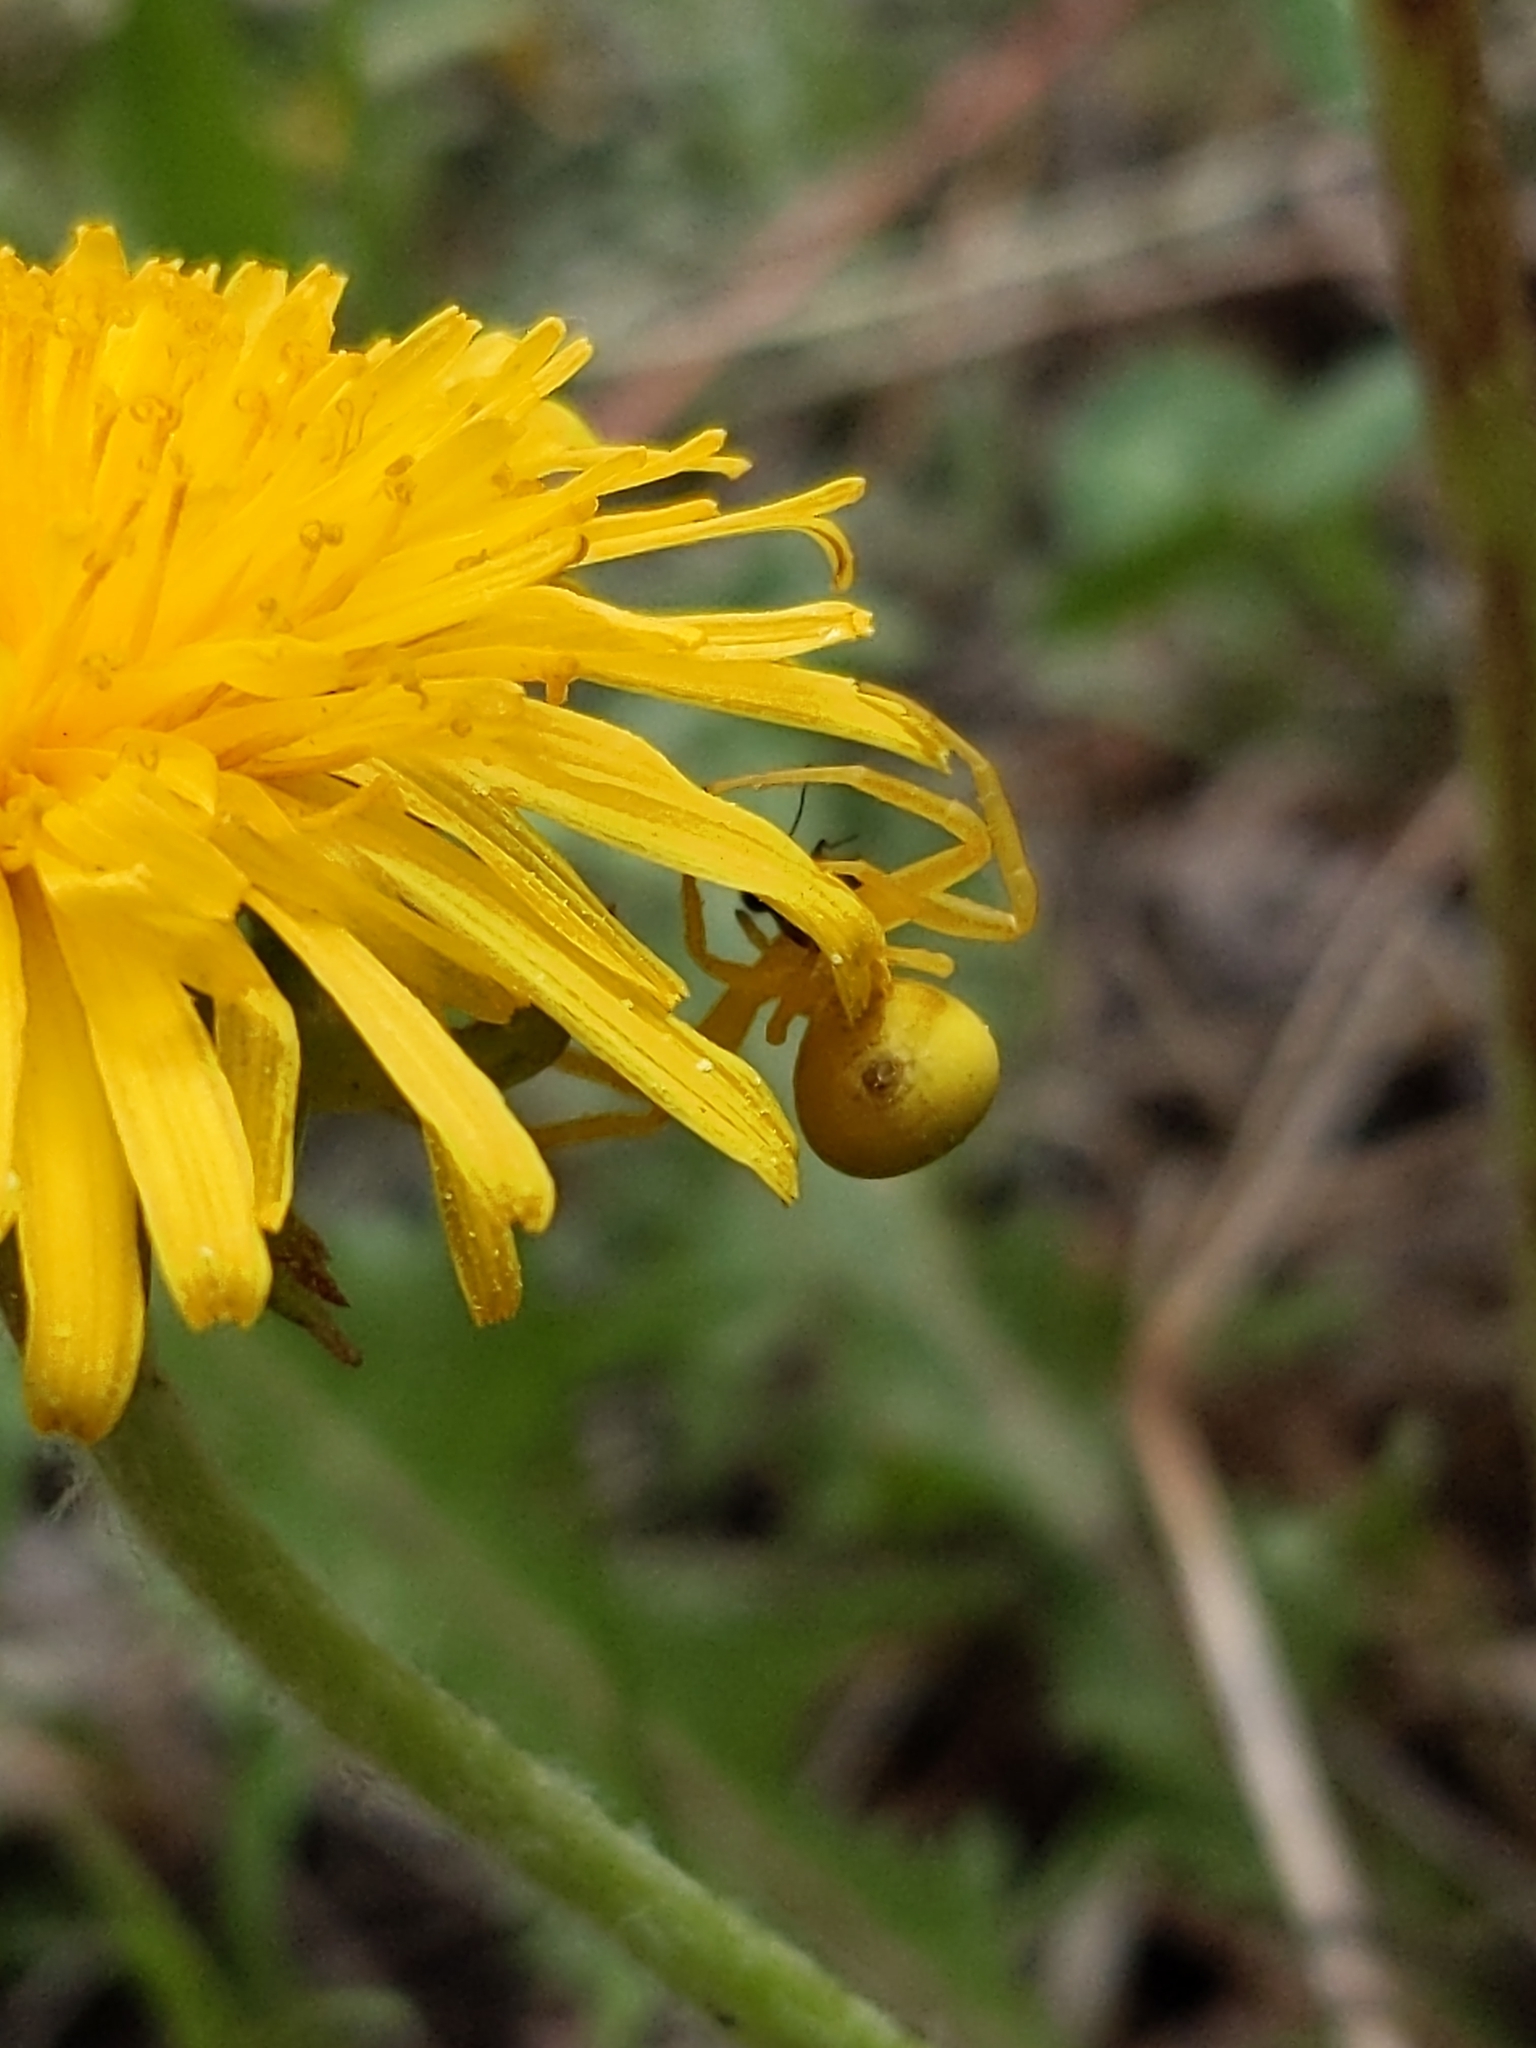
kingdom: Animalia
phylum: Arthropoda
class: Arachnida
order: Araneae
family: Thomisidae
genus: Misumena
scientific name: Misumena vatia
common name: Goldenrod crab spider
